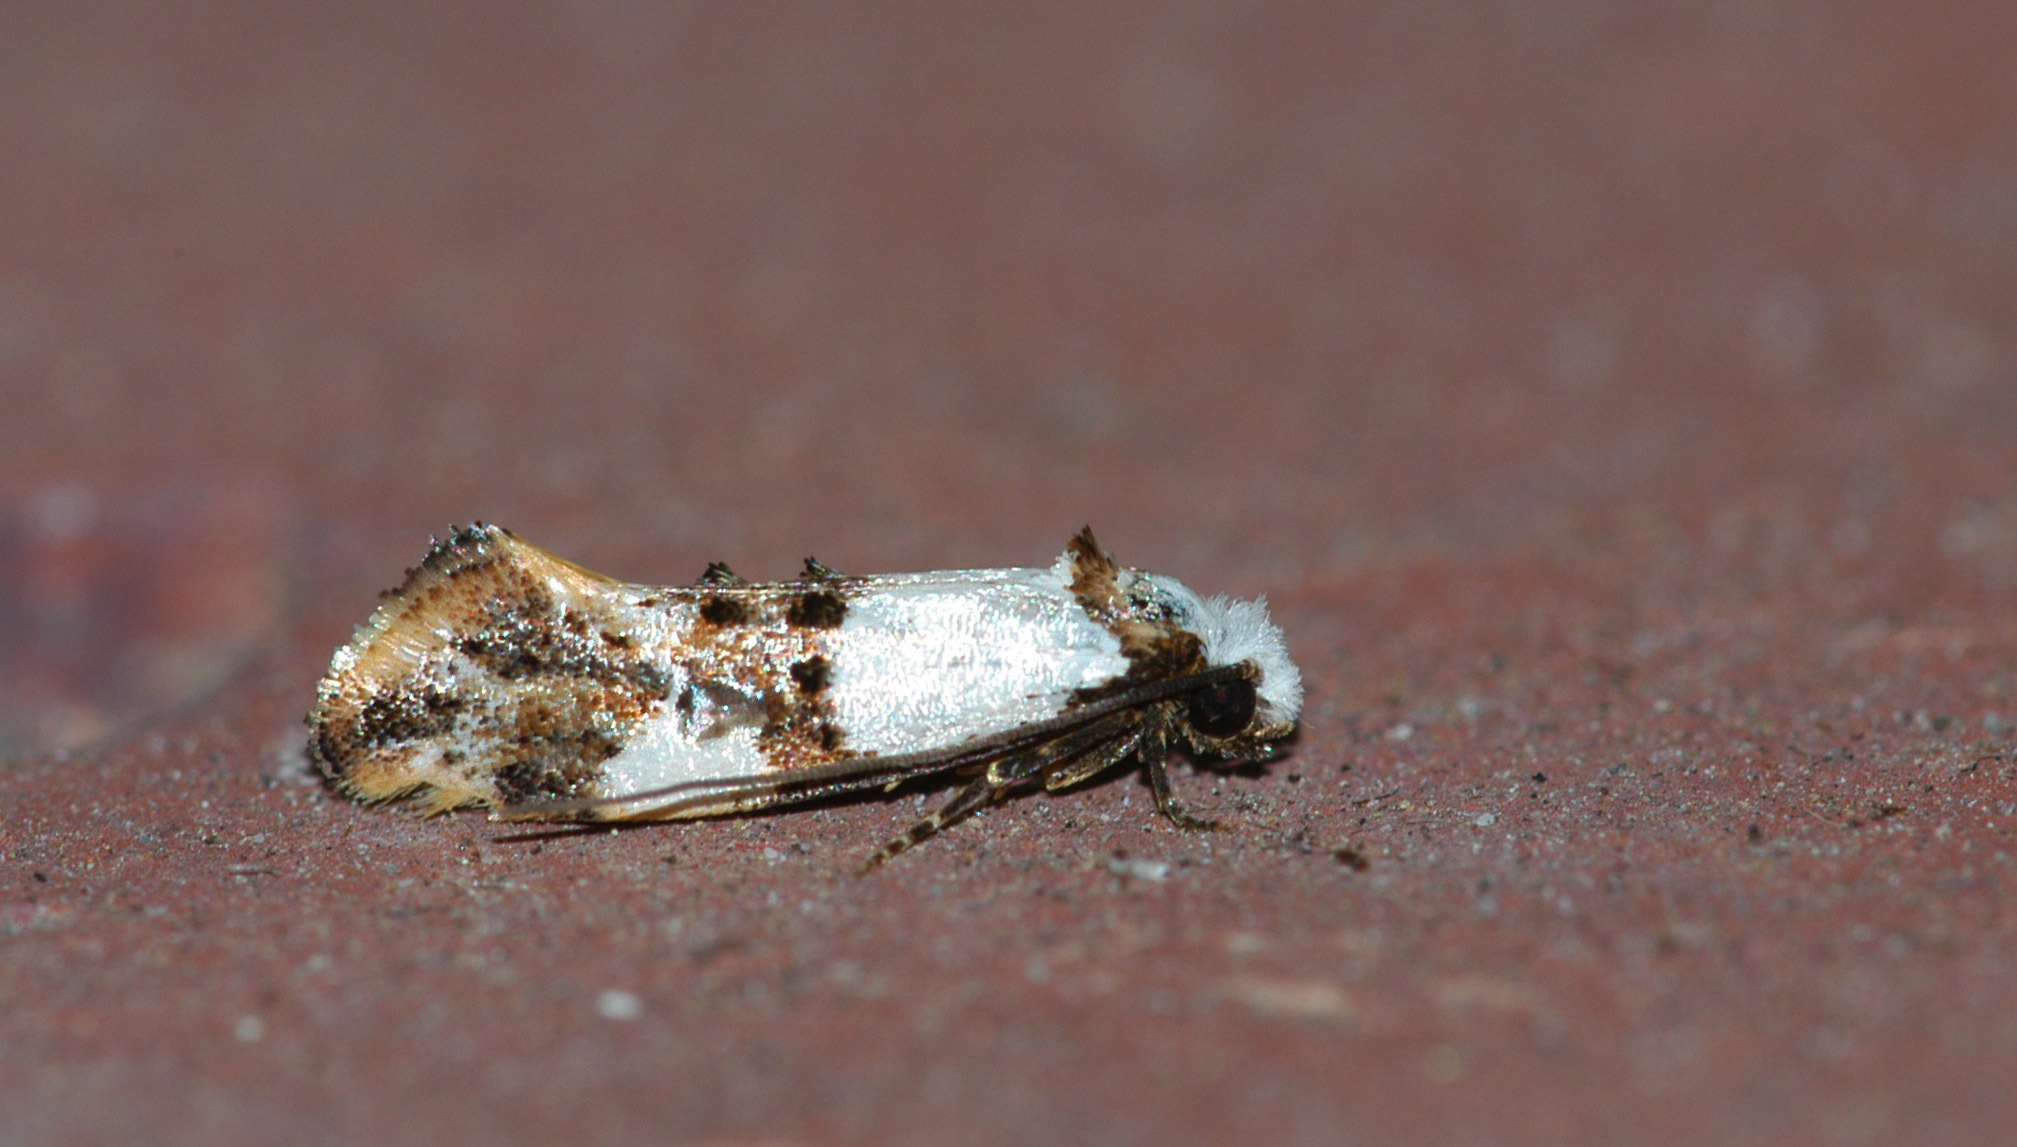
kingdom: Animalia
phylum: Arthropoda
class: Insecta
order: Lepidoptera
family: Tineidae
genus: Monopis
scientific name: Monopis meliorella
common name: Blotched monopis moth
